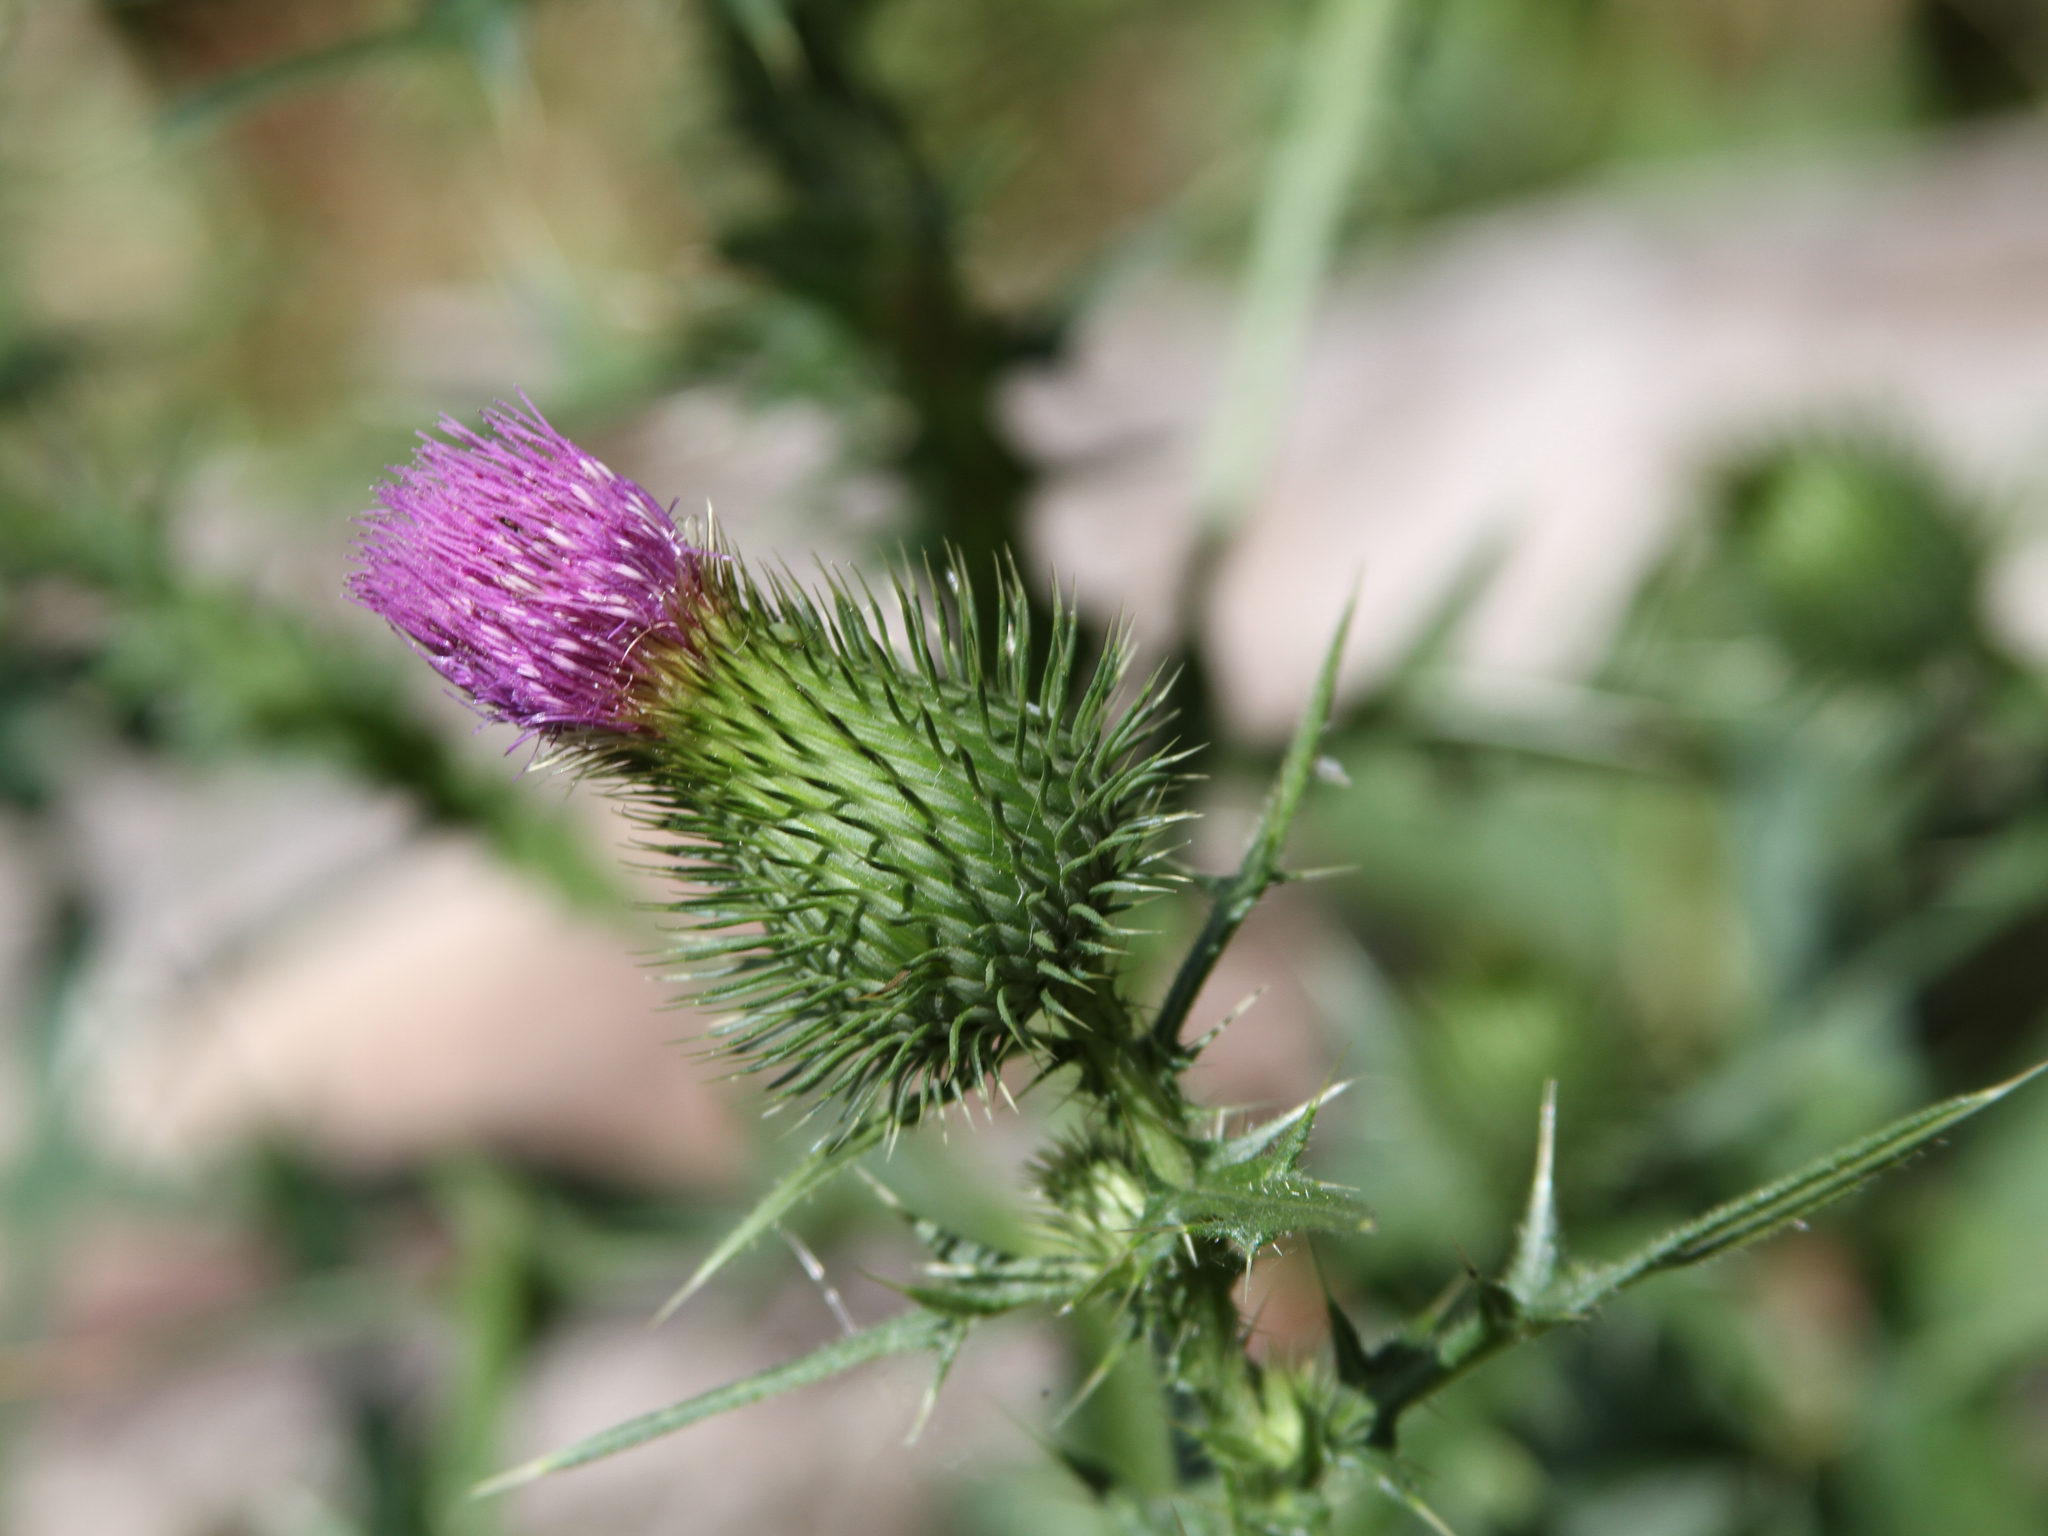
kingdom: Plantae
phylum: Tracheophyta
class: Magnoliopsida
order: Asterales
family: Asteraceae
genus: Cirsium
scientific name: Cirsium vulgare
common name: Bull thistle
